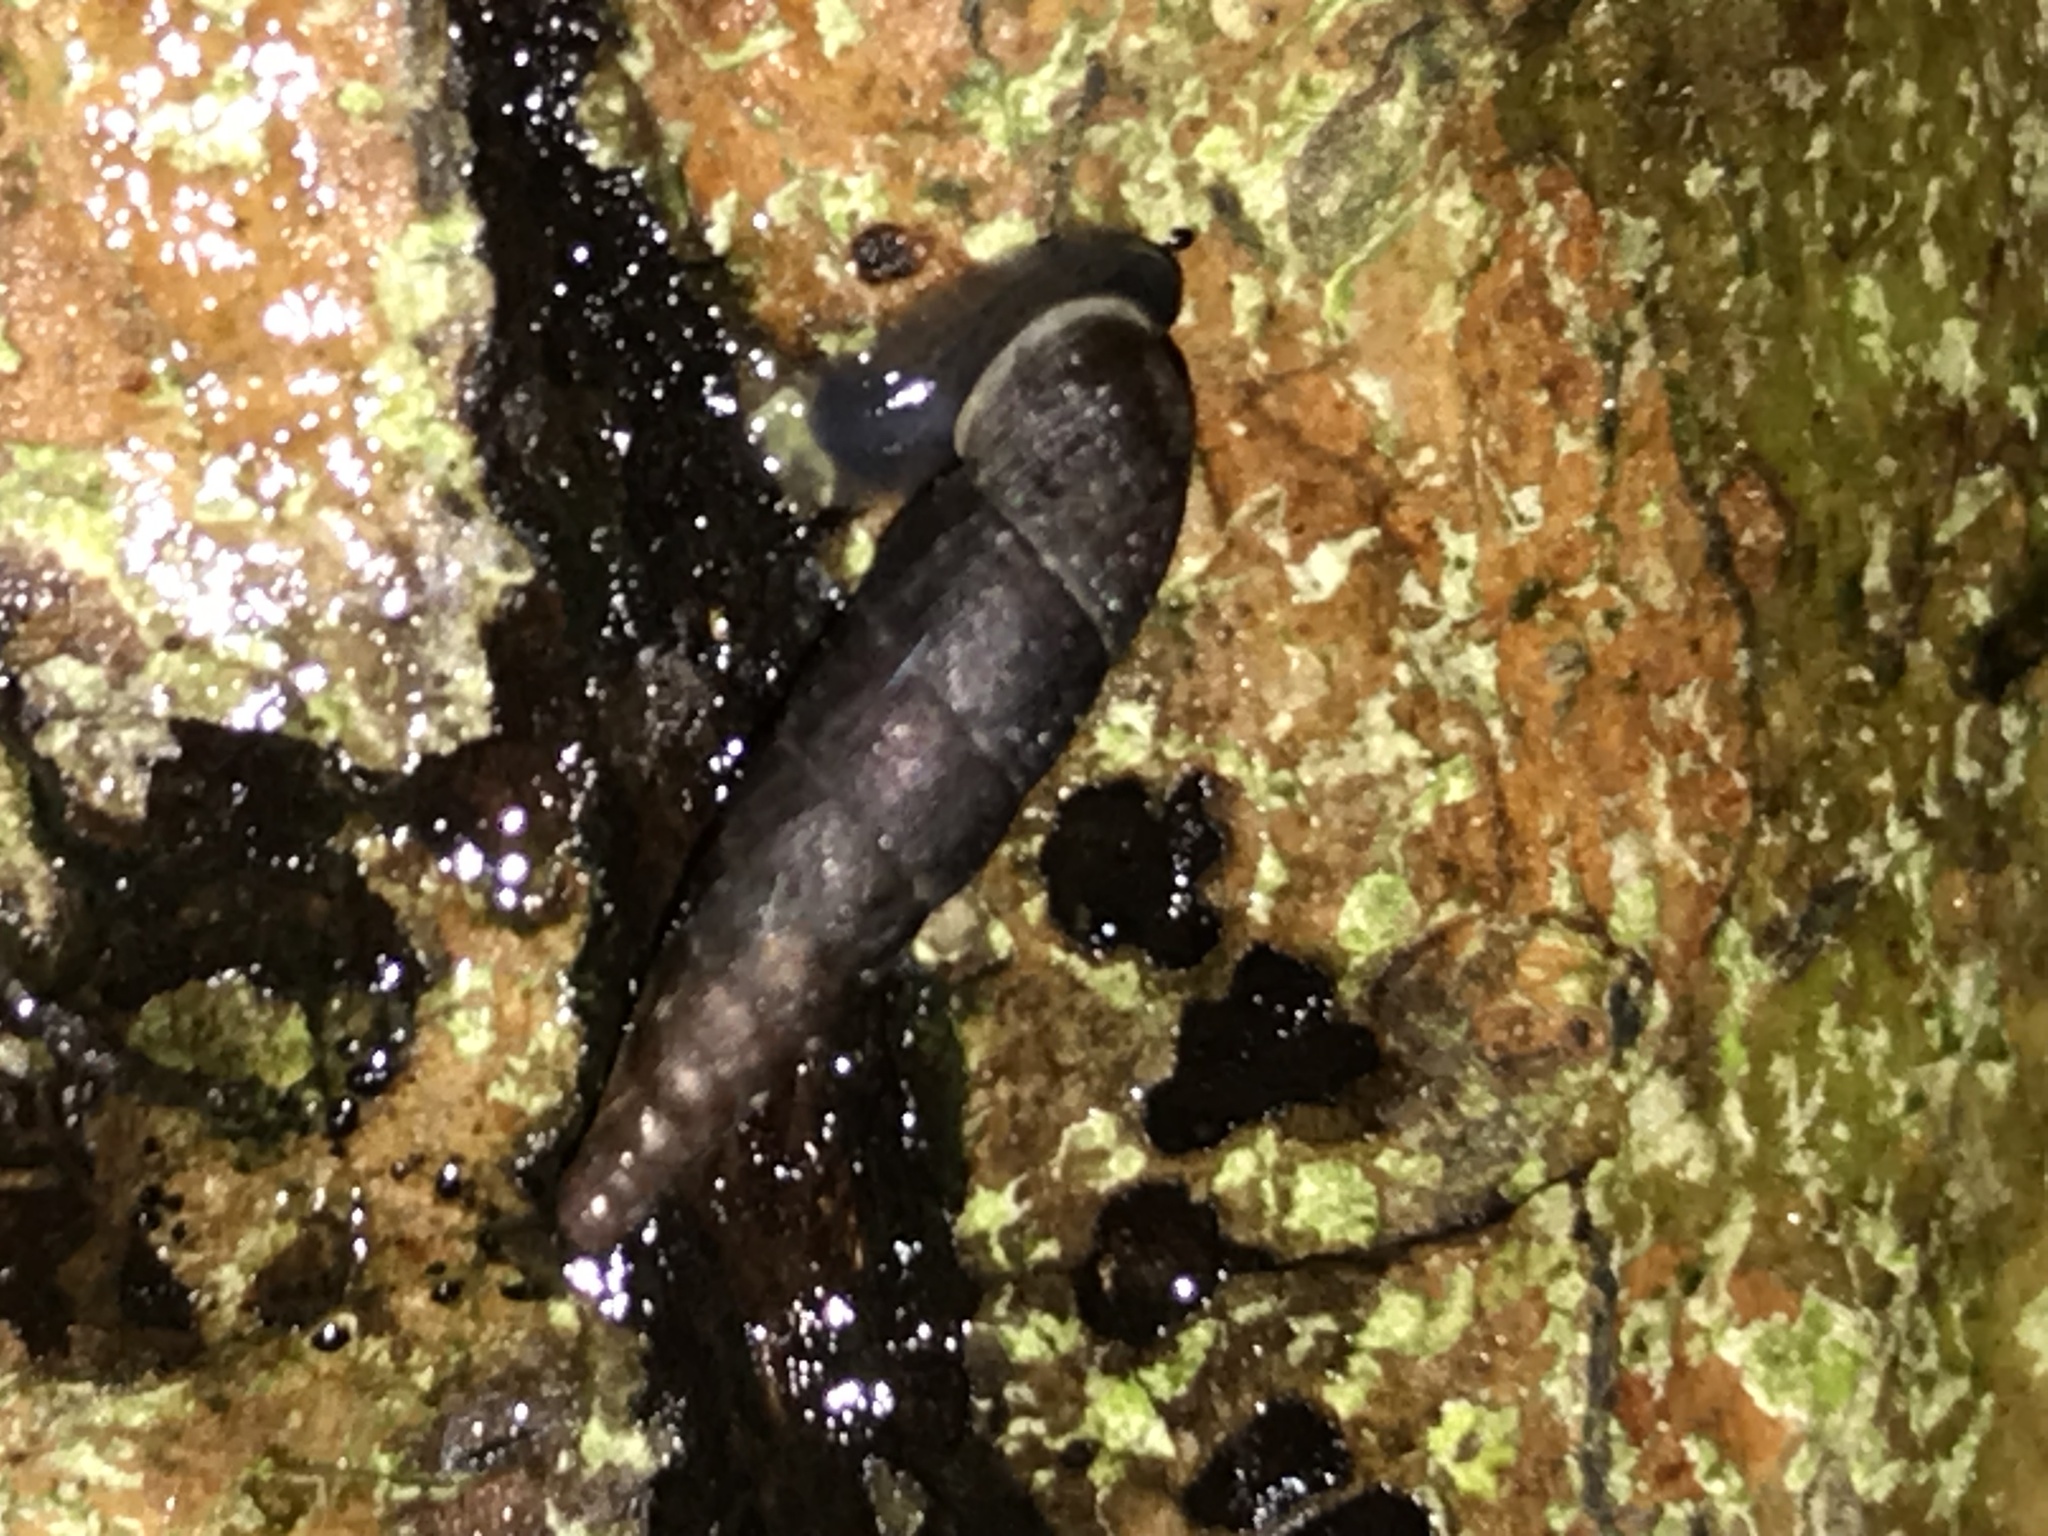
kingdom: Animalia
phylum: Mollusca
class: Gastropoda
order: Stylommatophora
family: Clausiliidae
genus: Clausilia
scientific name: Clausilia bidentata
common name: Two-toothed door snail
